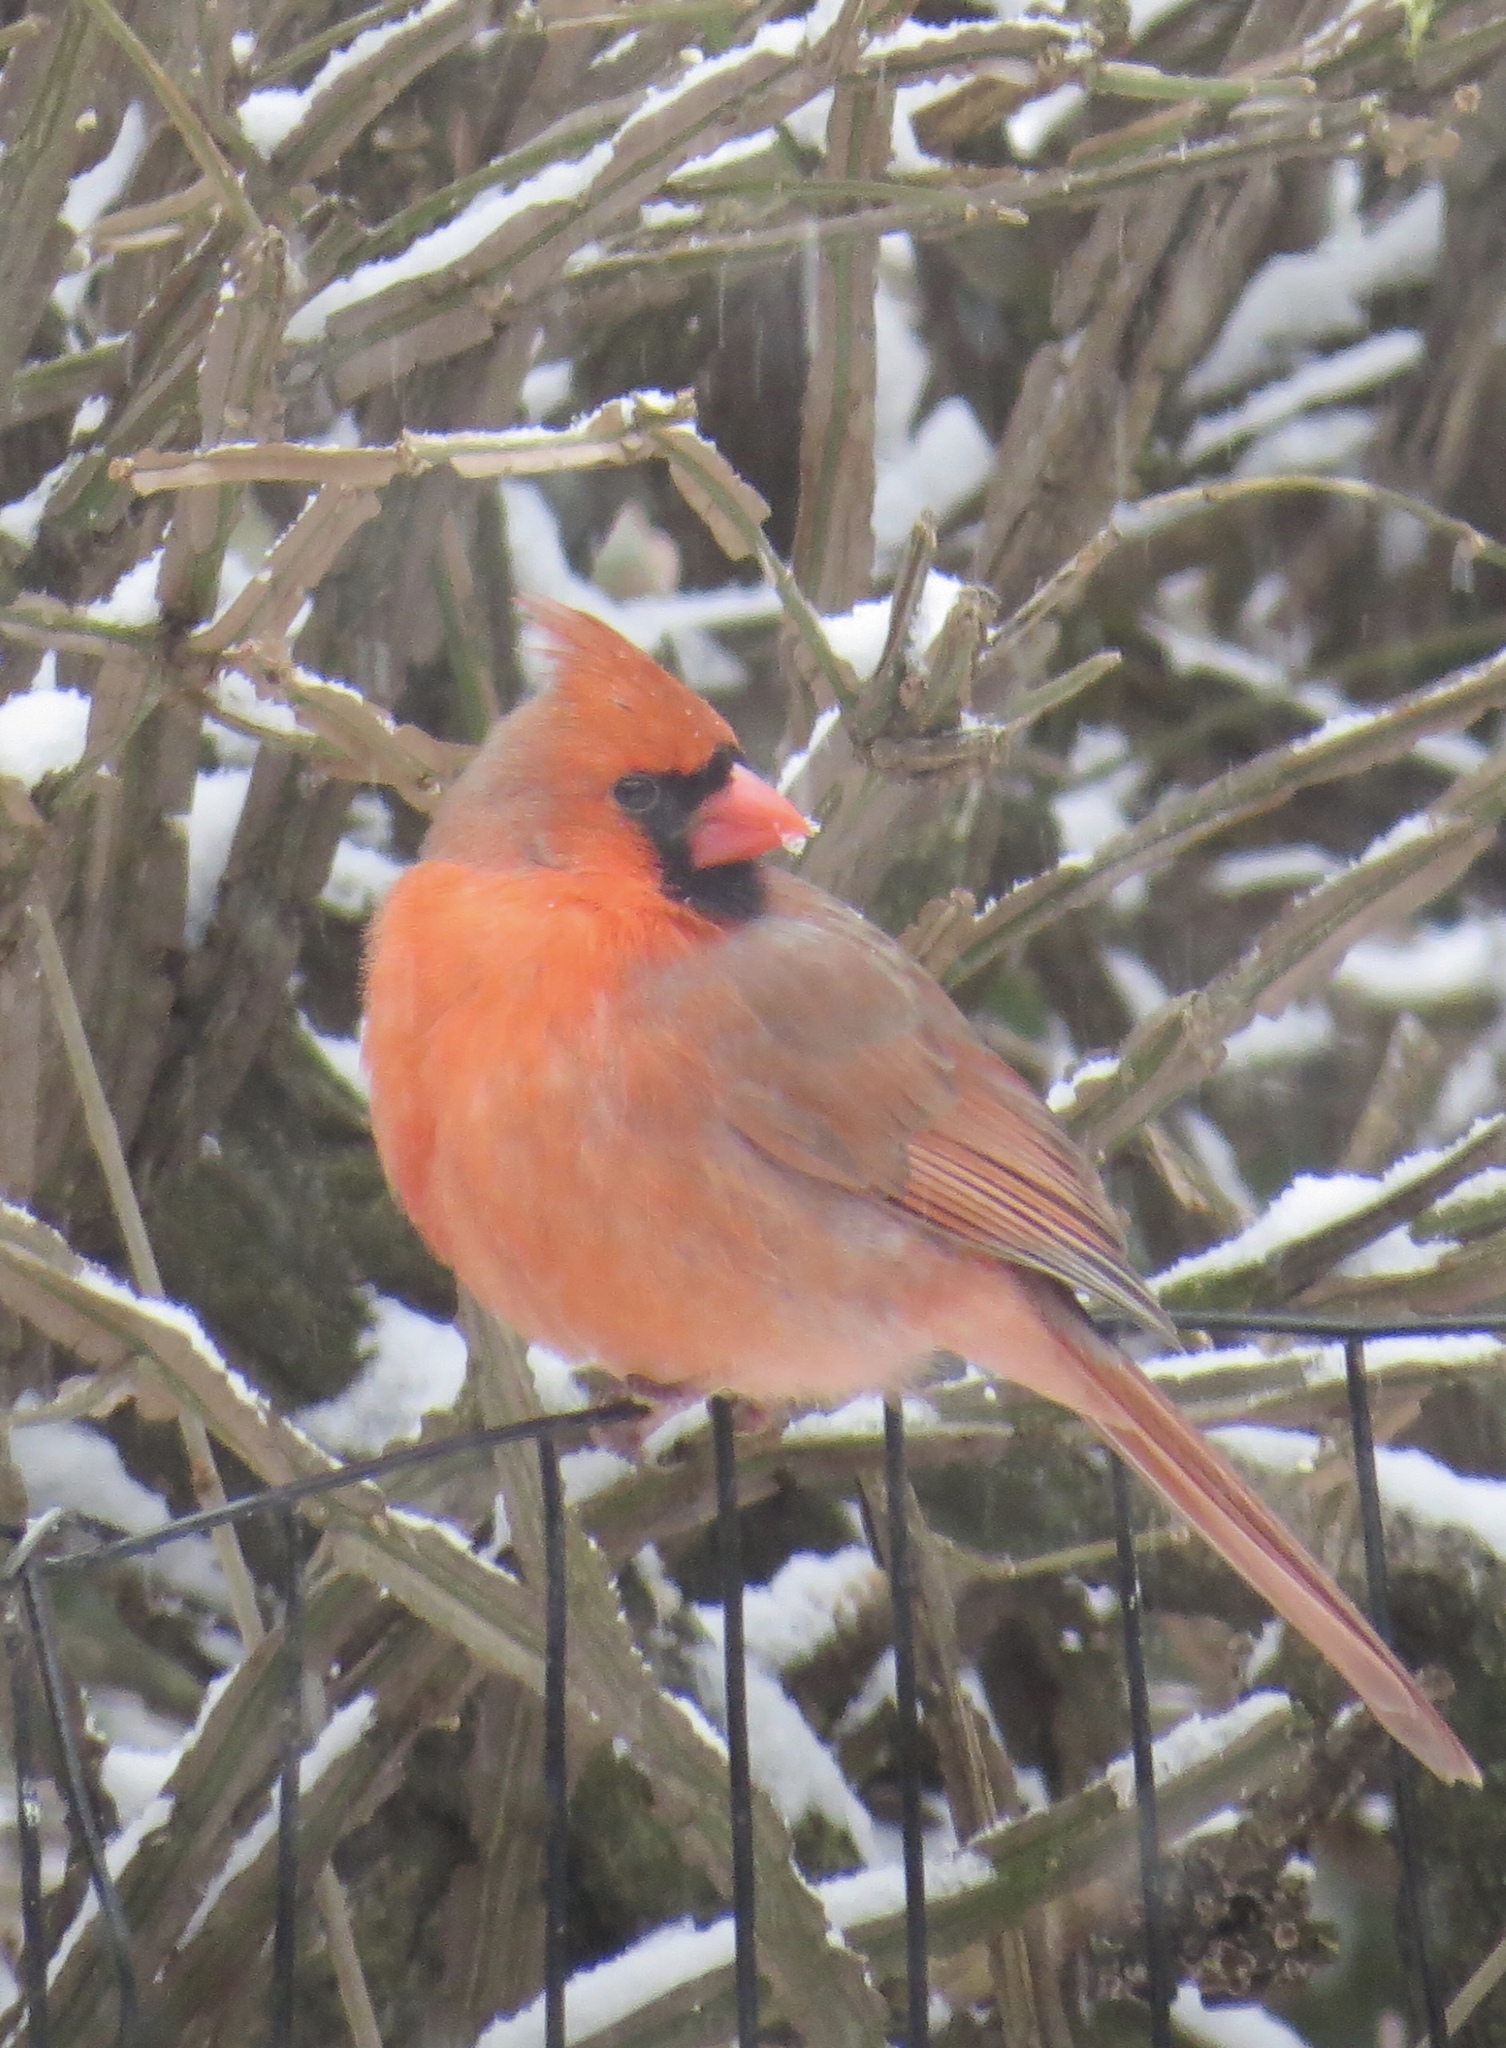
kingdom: Animalia
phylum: Chordata
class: Aves
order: Passeriformes
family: Cardinalidae
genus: Cardinalis
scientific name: Cardinalis cardinalis
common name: Northern cardinal
